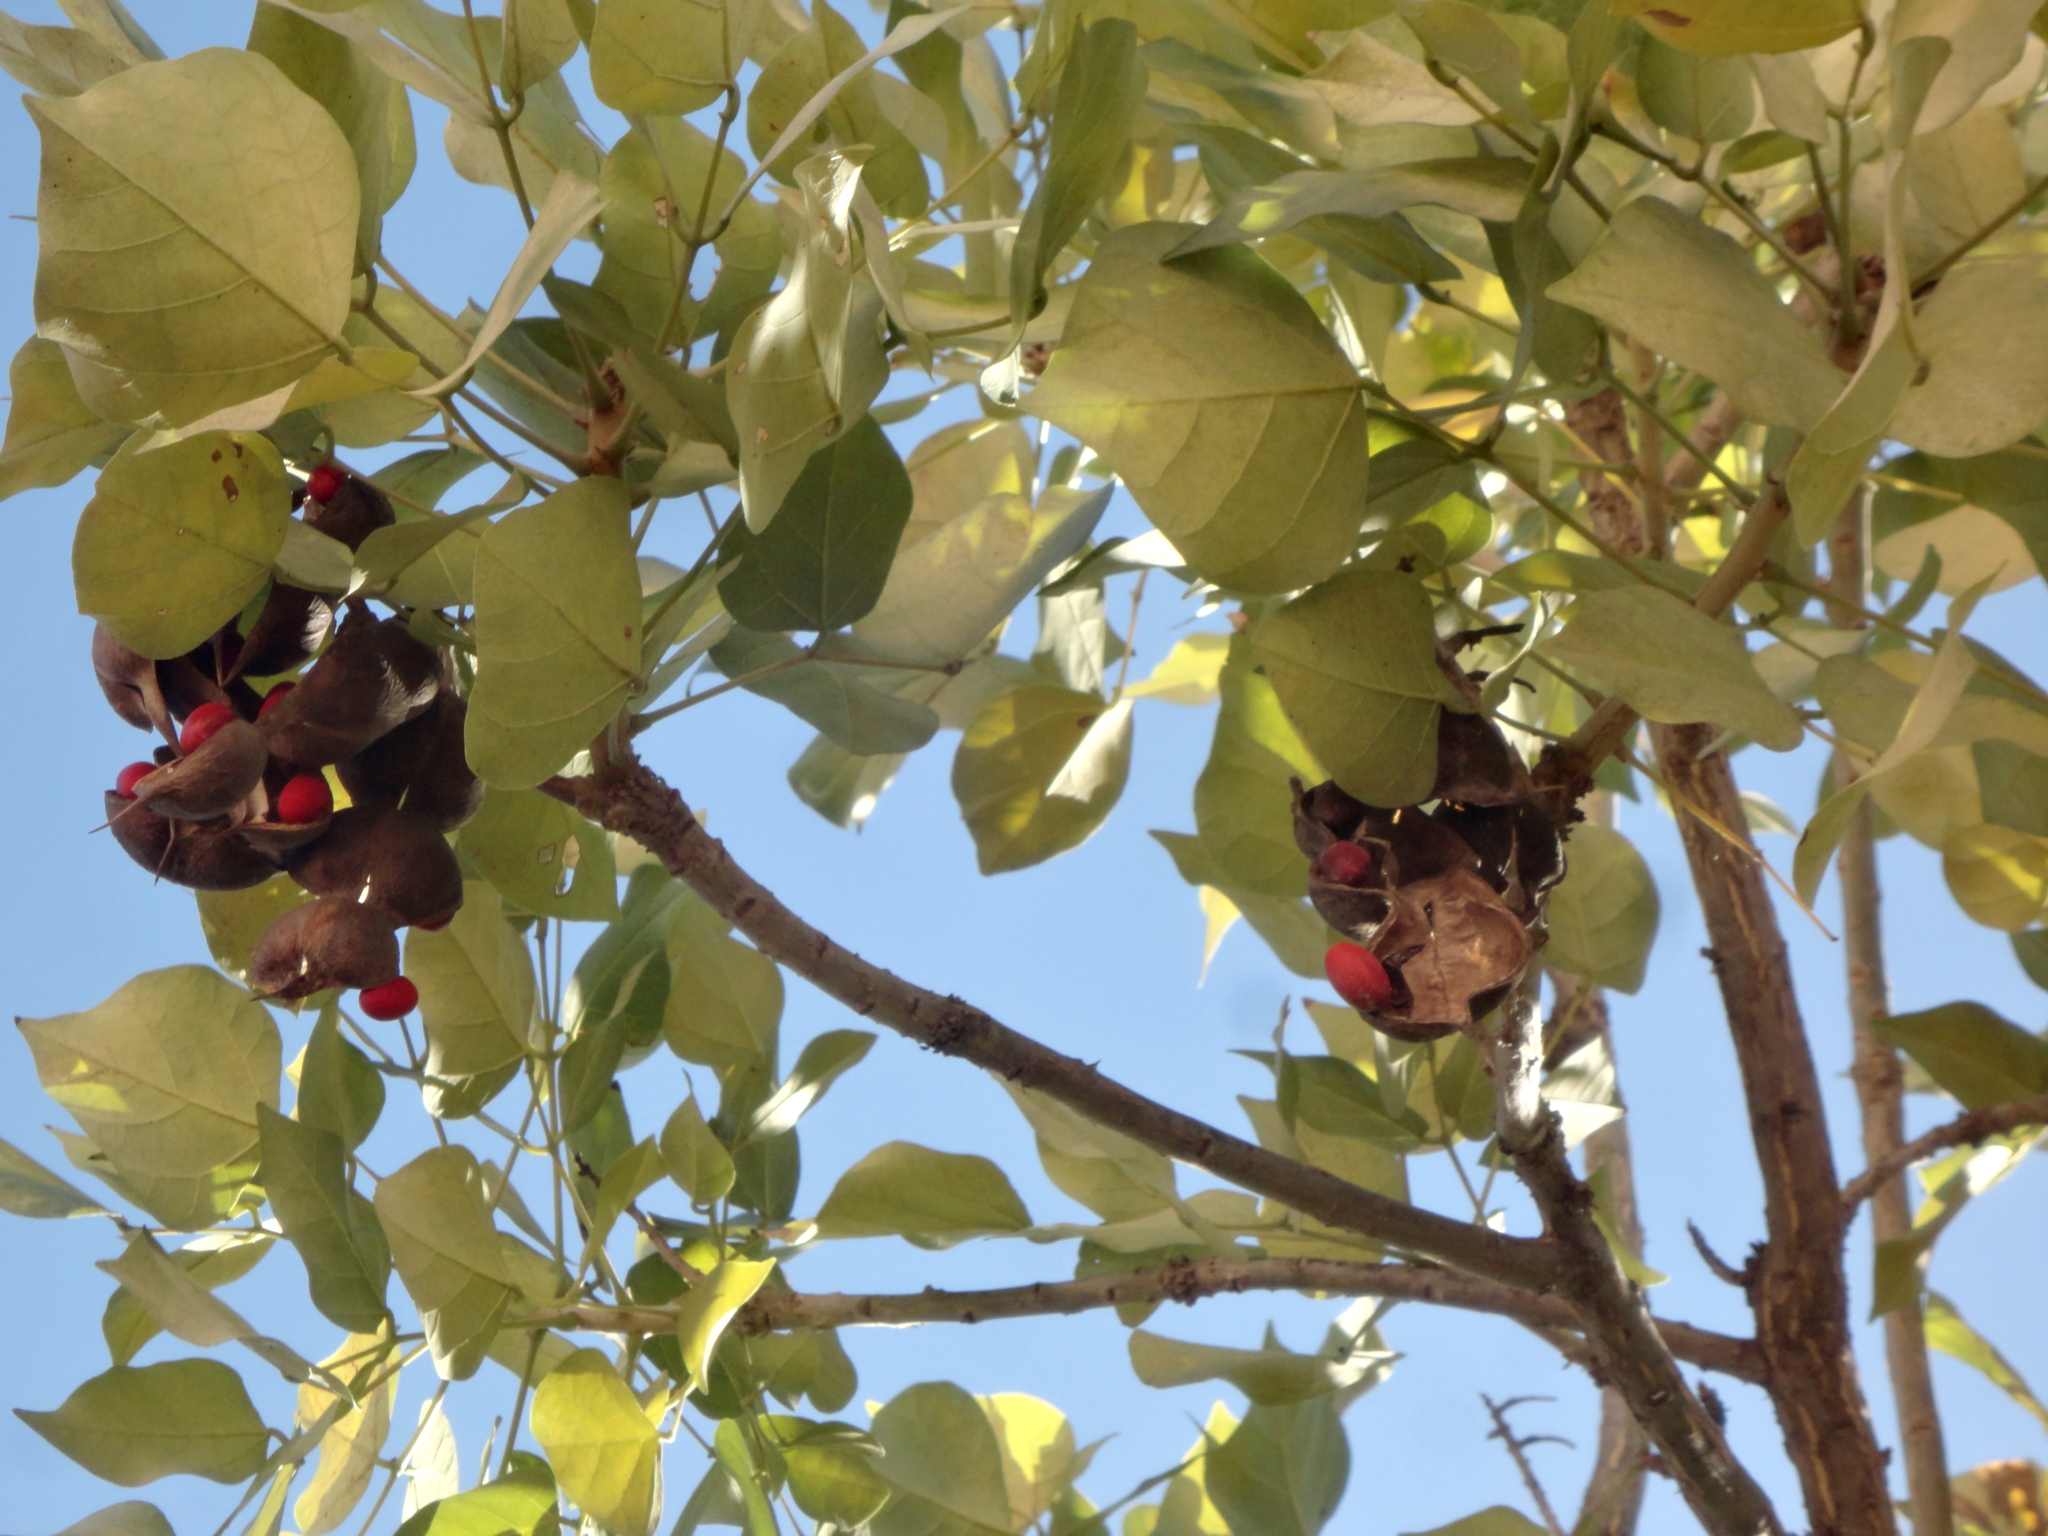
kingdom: Plantae
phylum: Tracheophyta
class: Magnoliopsida
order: Fabales
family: Fabaceae
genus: Erythrina
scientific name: Erythrina americana
